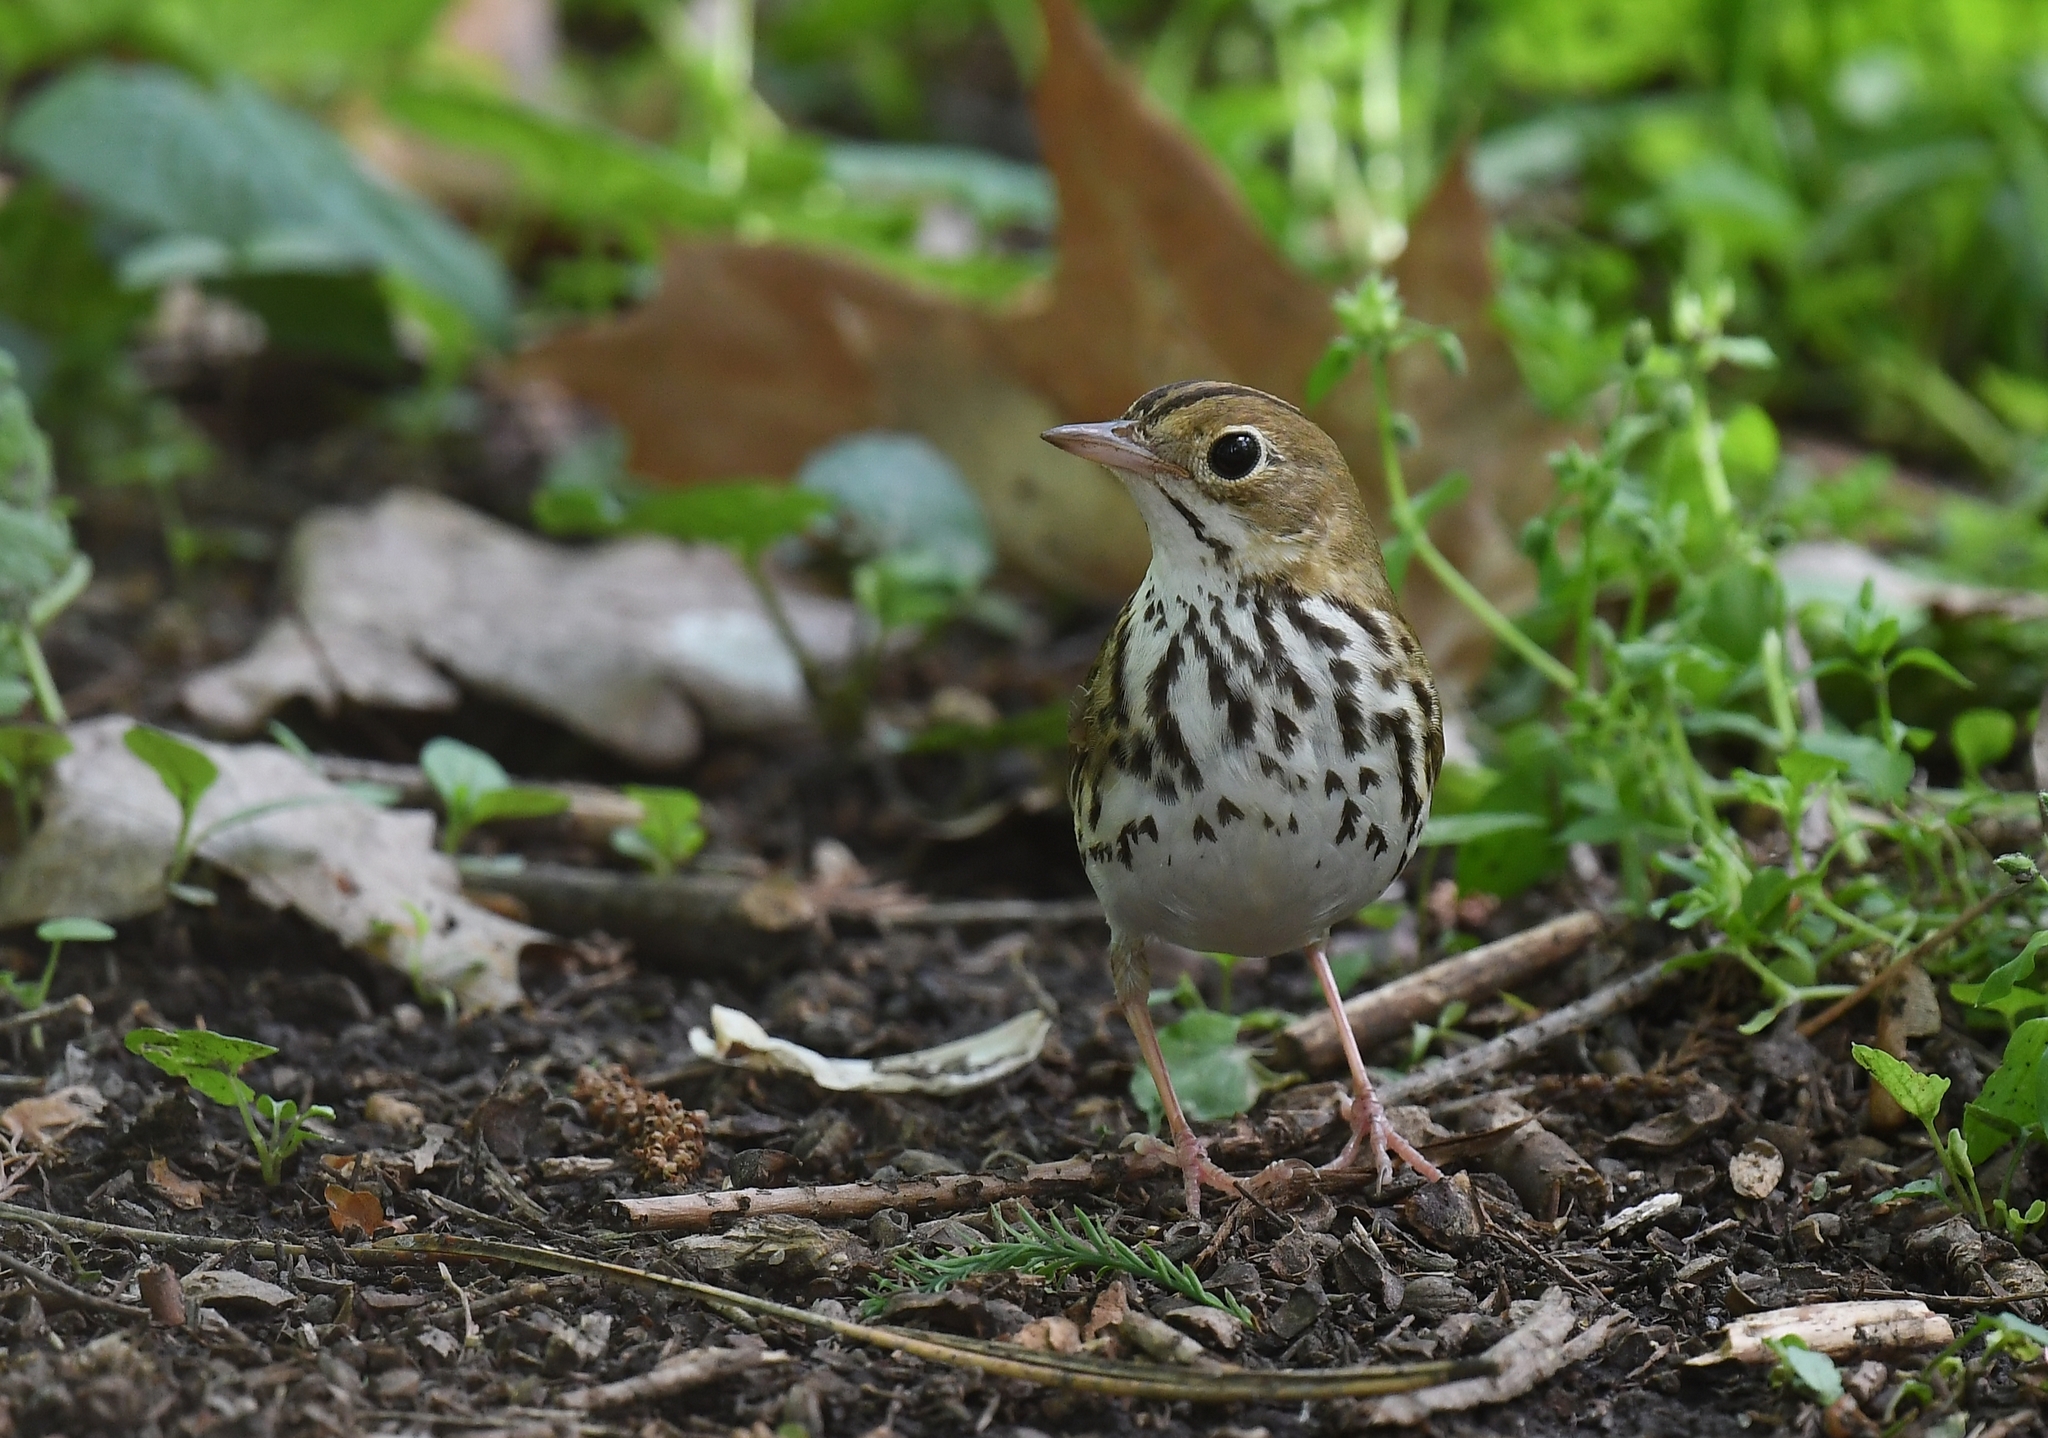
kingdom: Animalia
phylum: Chordata
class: Aves
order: Passeriformes
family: Parulidae
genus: Seiurus
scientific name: Seiurus aurocapilla
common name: Ovenbird
